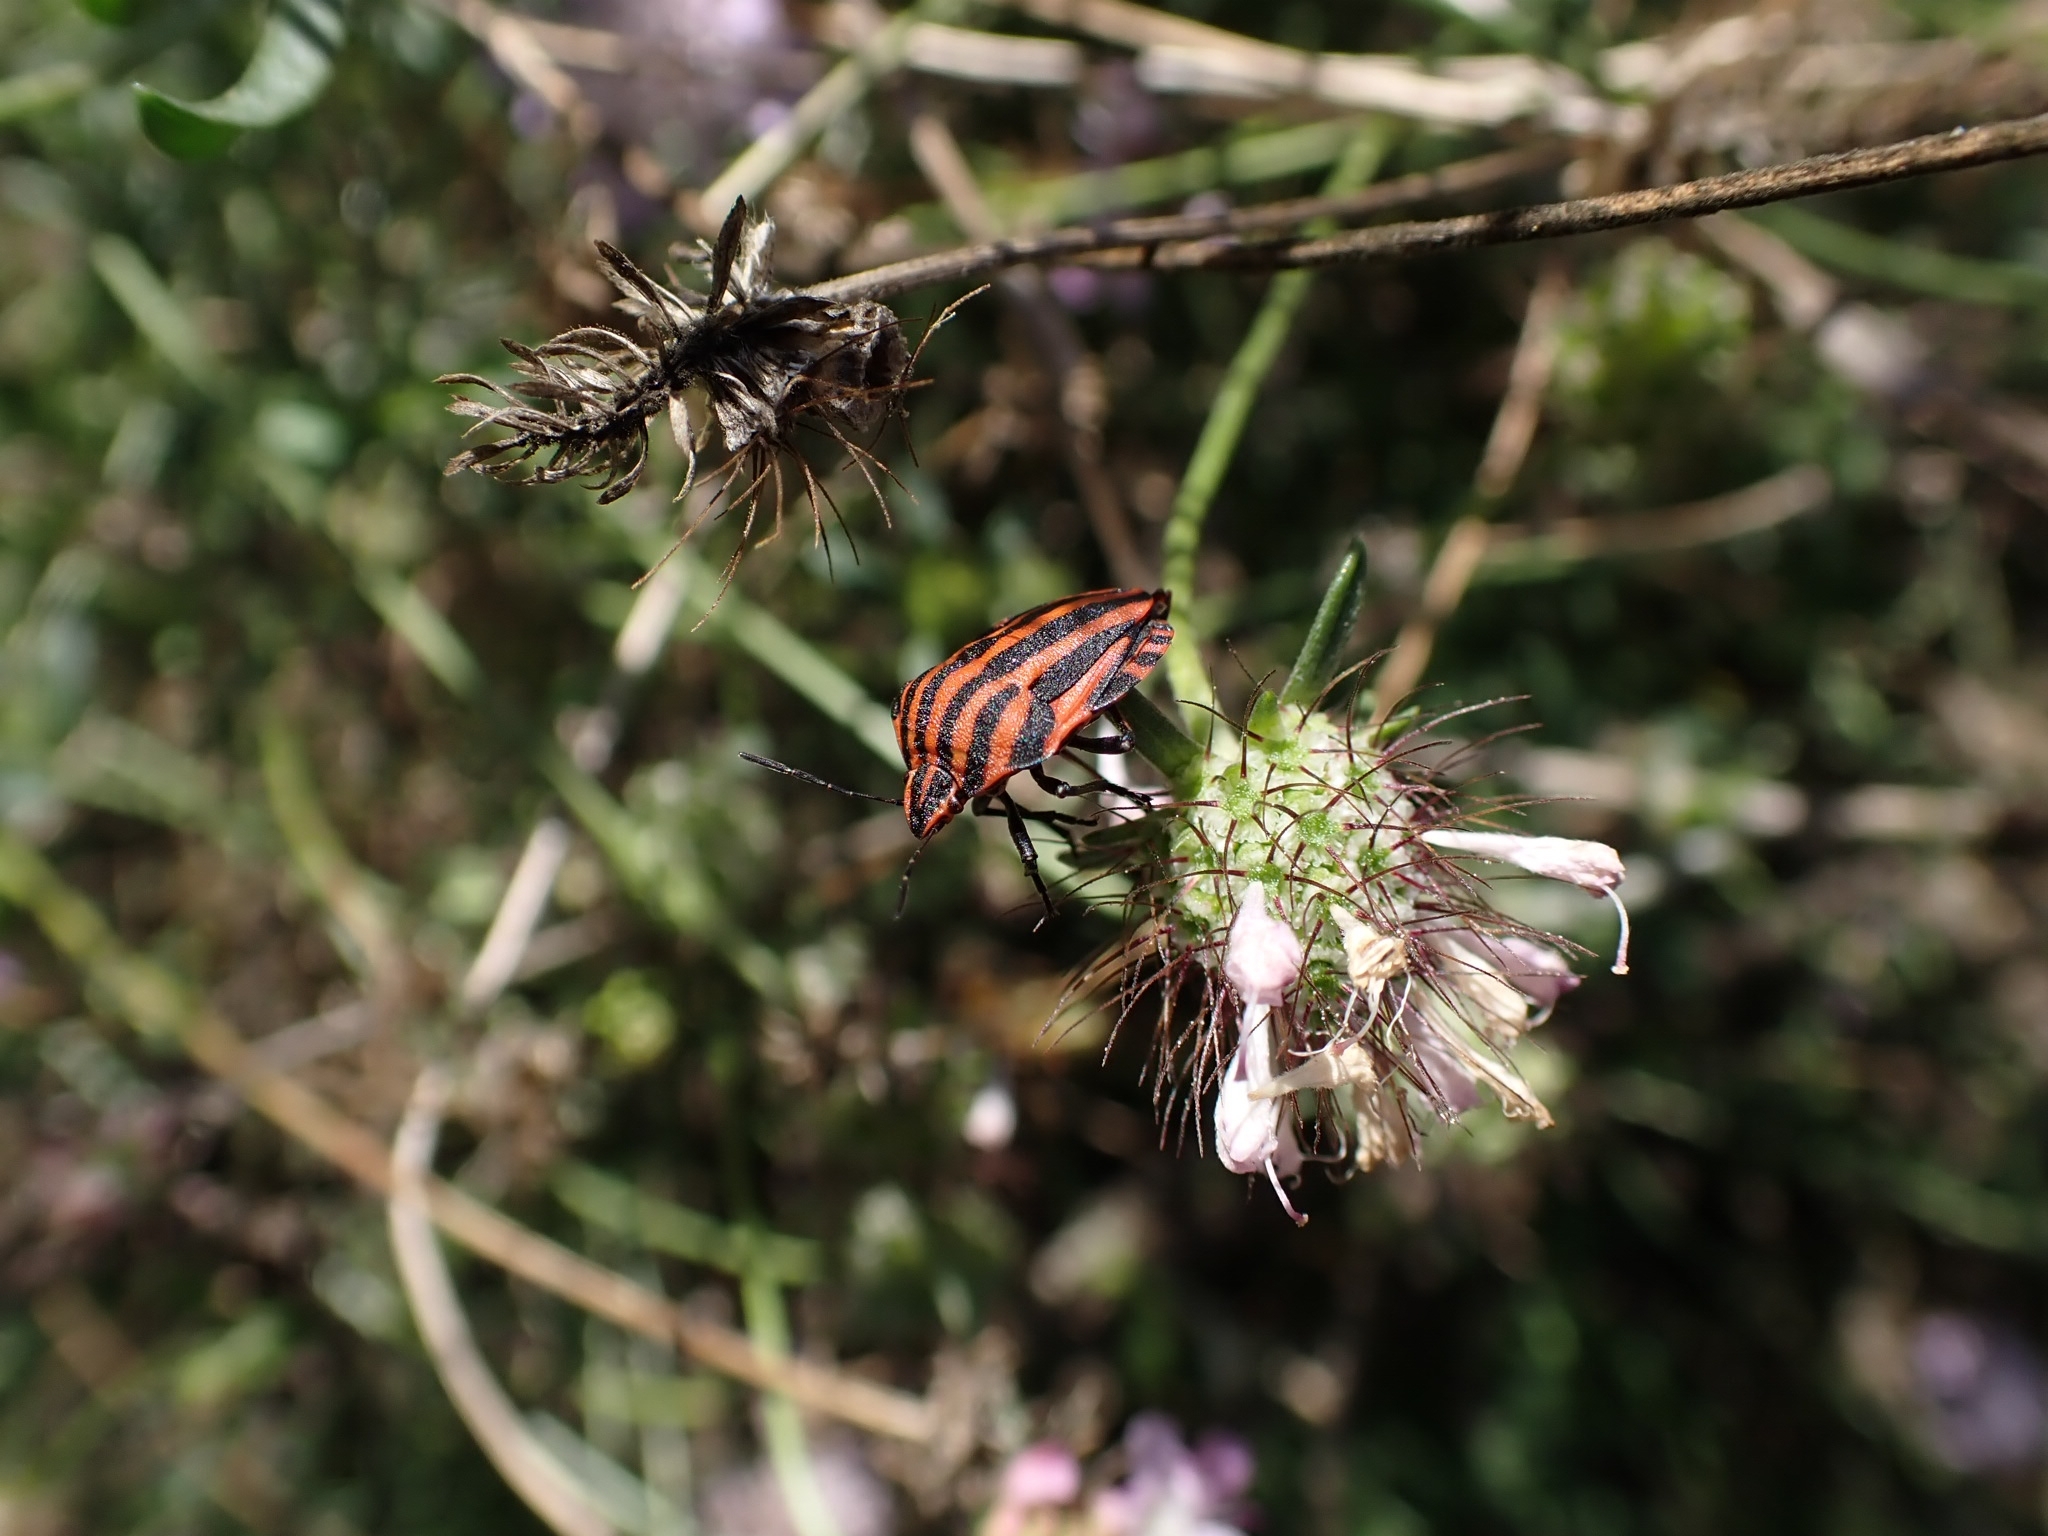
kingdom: Animalia
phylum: Arthropoda
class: Insecta
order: Hemiptera
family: Pentatomidae
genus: Graphosoma
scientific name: Graphosoma italicum
